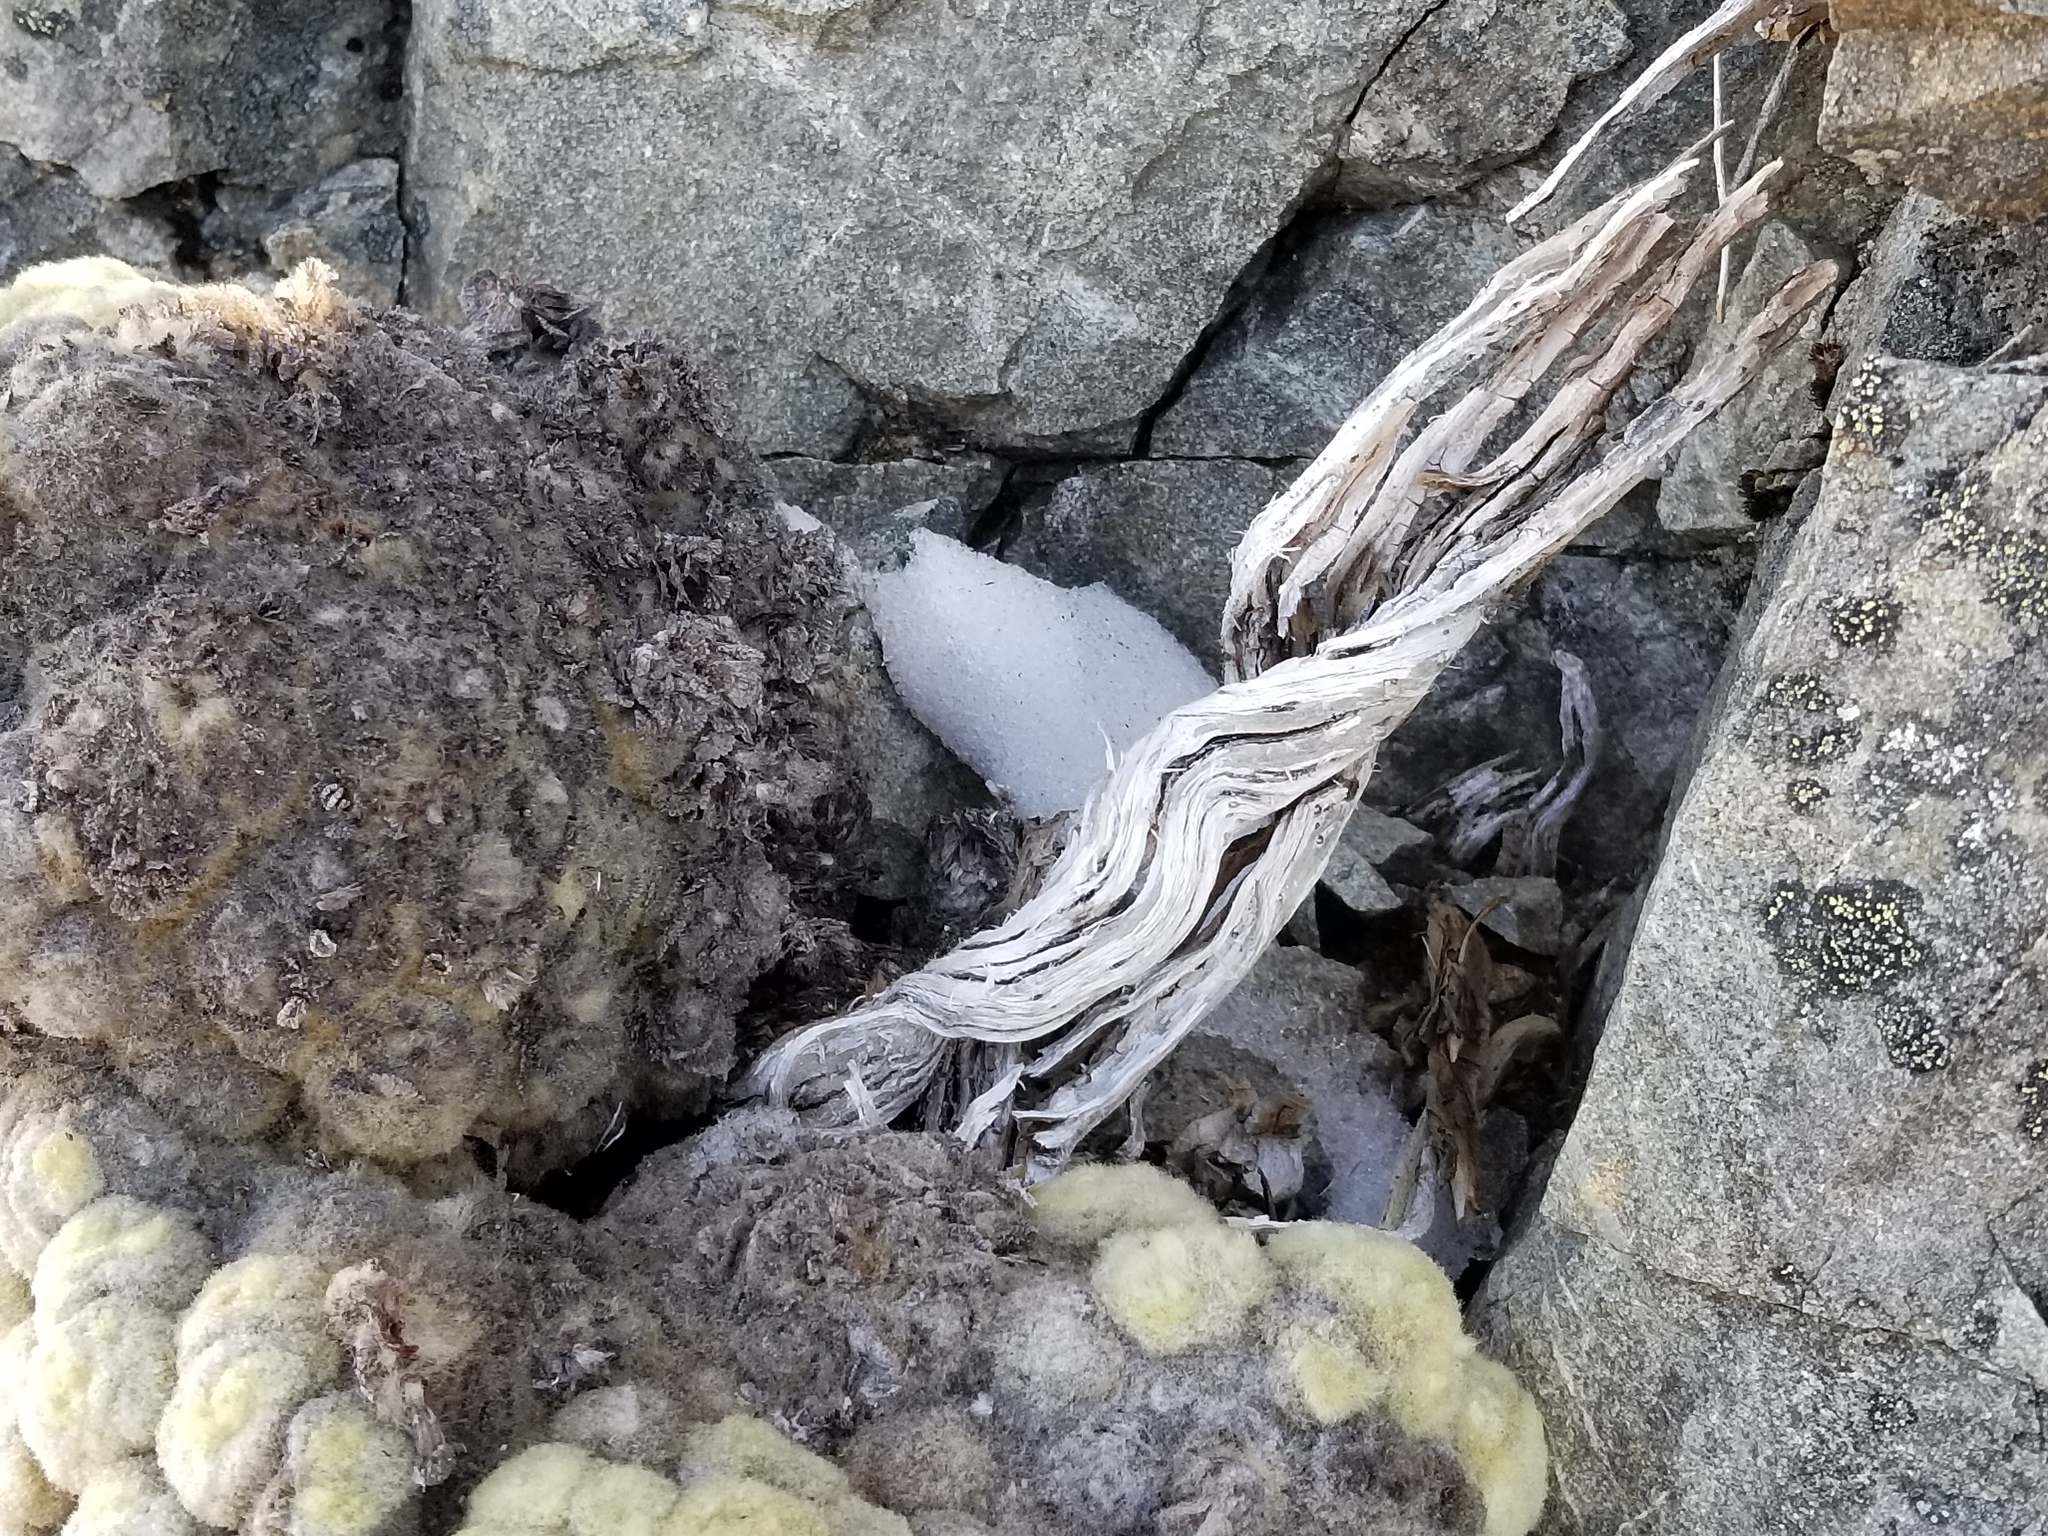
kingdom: Plantae
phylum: Tracheophyta
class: Magnoliopsida
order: Asterales
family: Asteraceae
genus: Haastia
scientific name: Haastia pulvinaris
